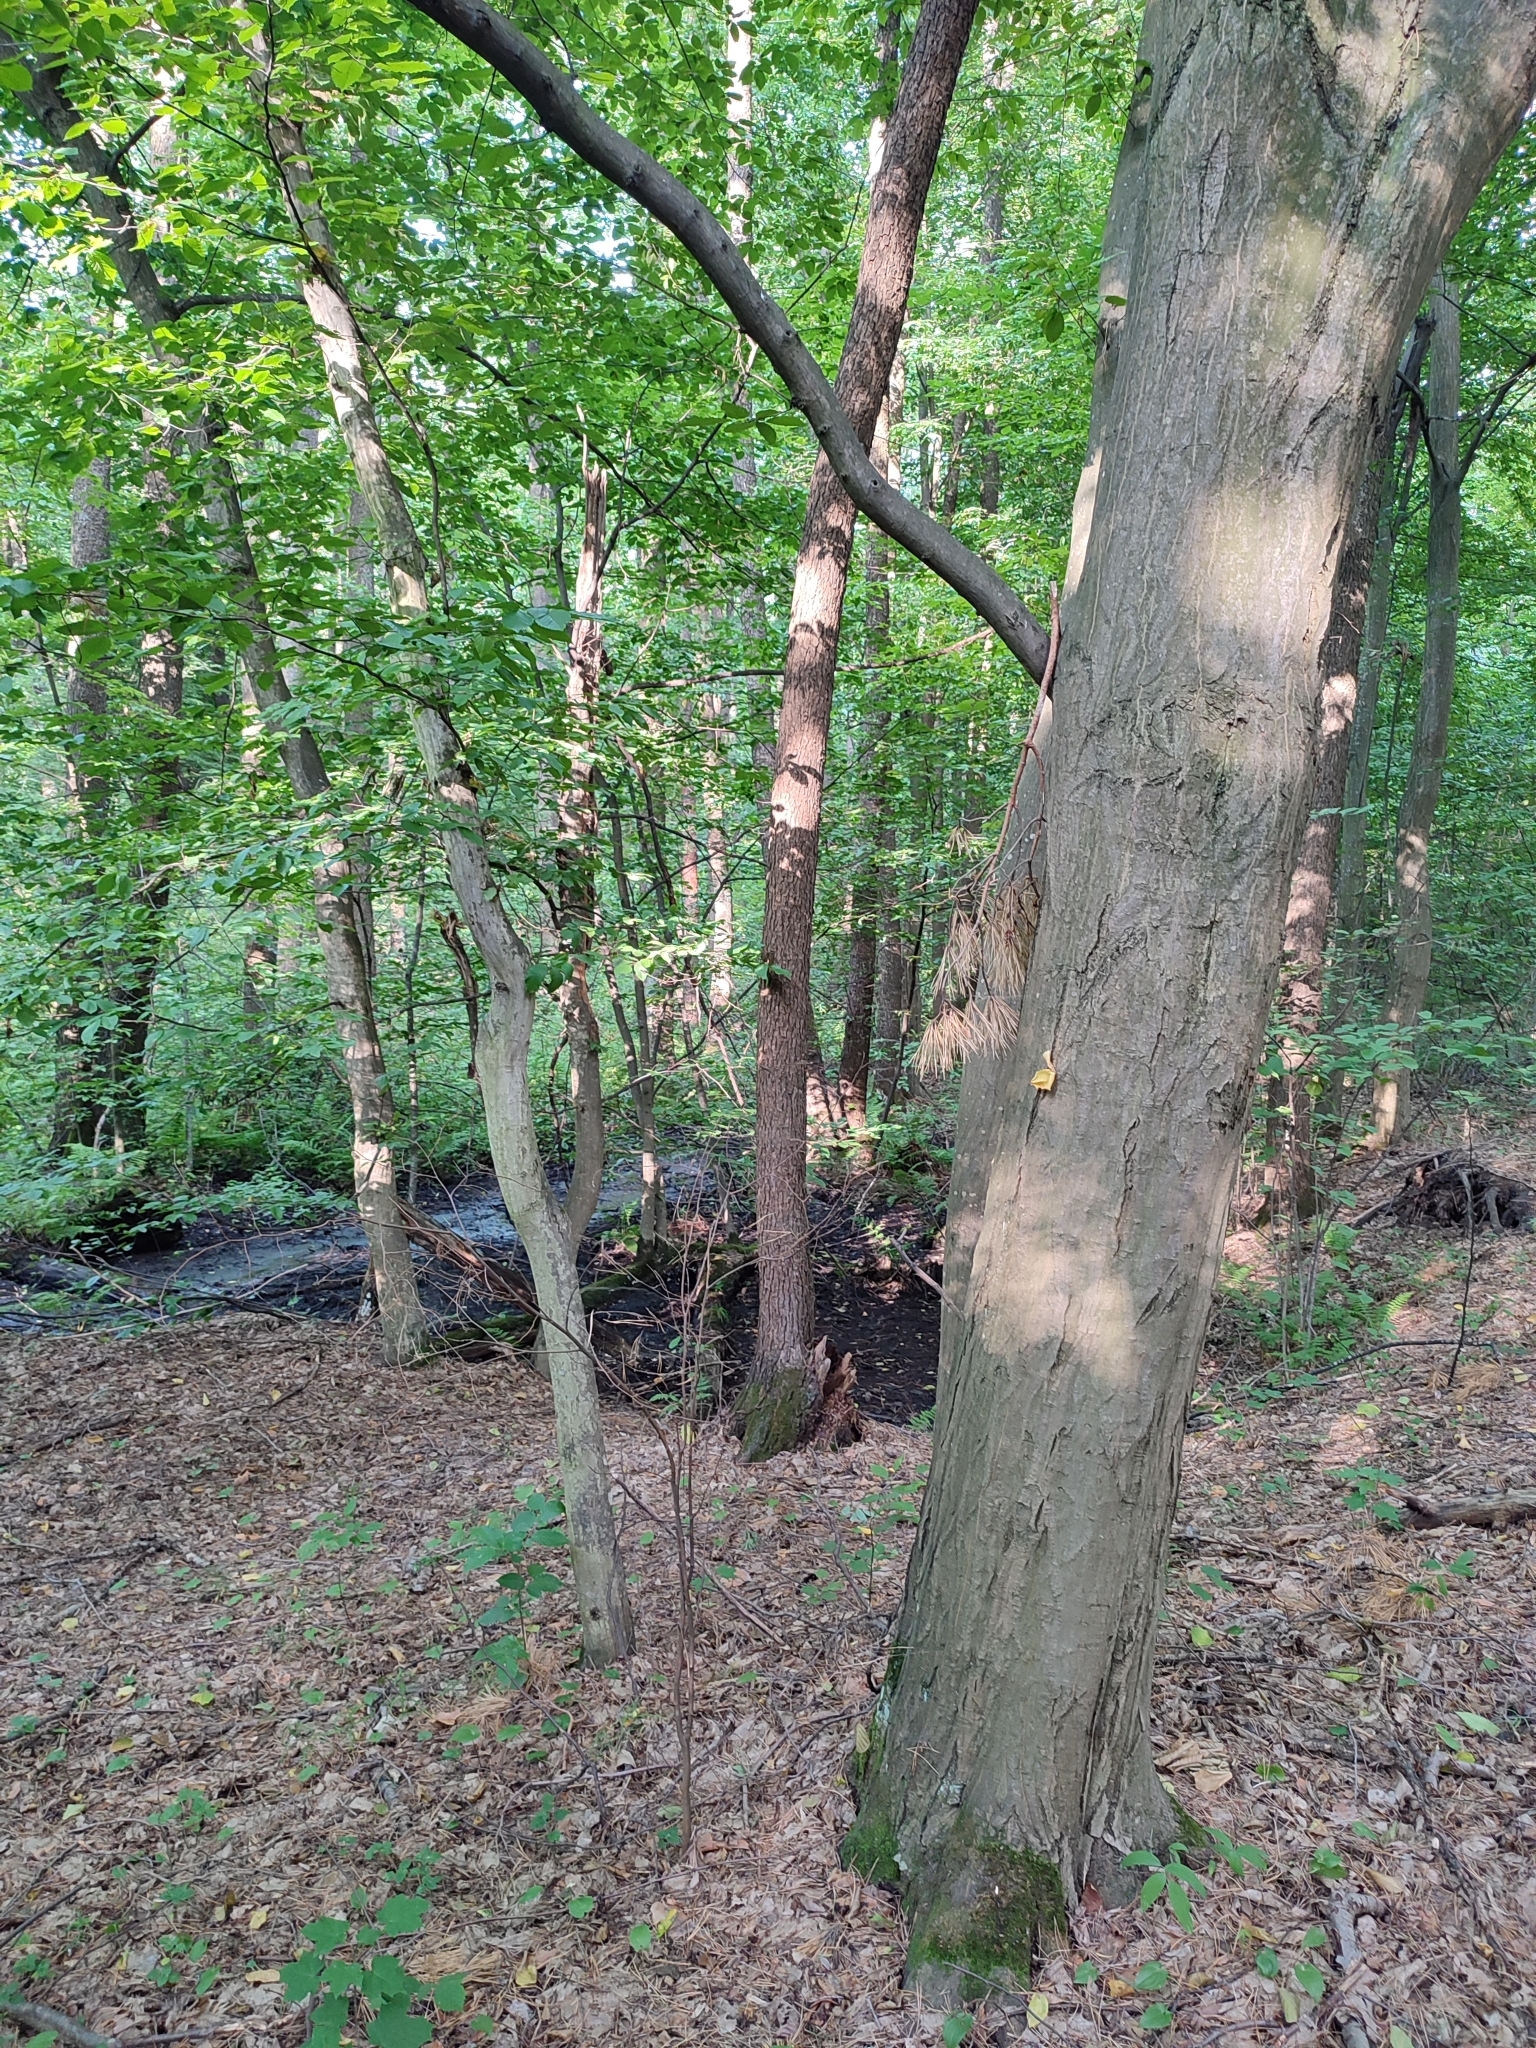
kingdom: Plantae
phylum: Tracheophyta
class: Magnoliopsida
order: Fagales
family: Betulaceae
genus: Carpinus
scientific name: Carpinus betulus
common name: Hornbeam
